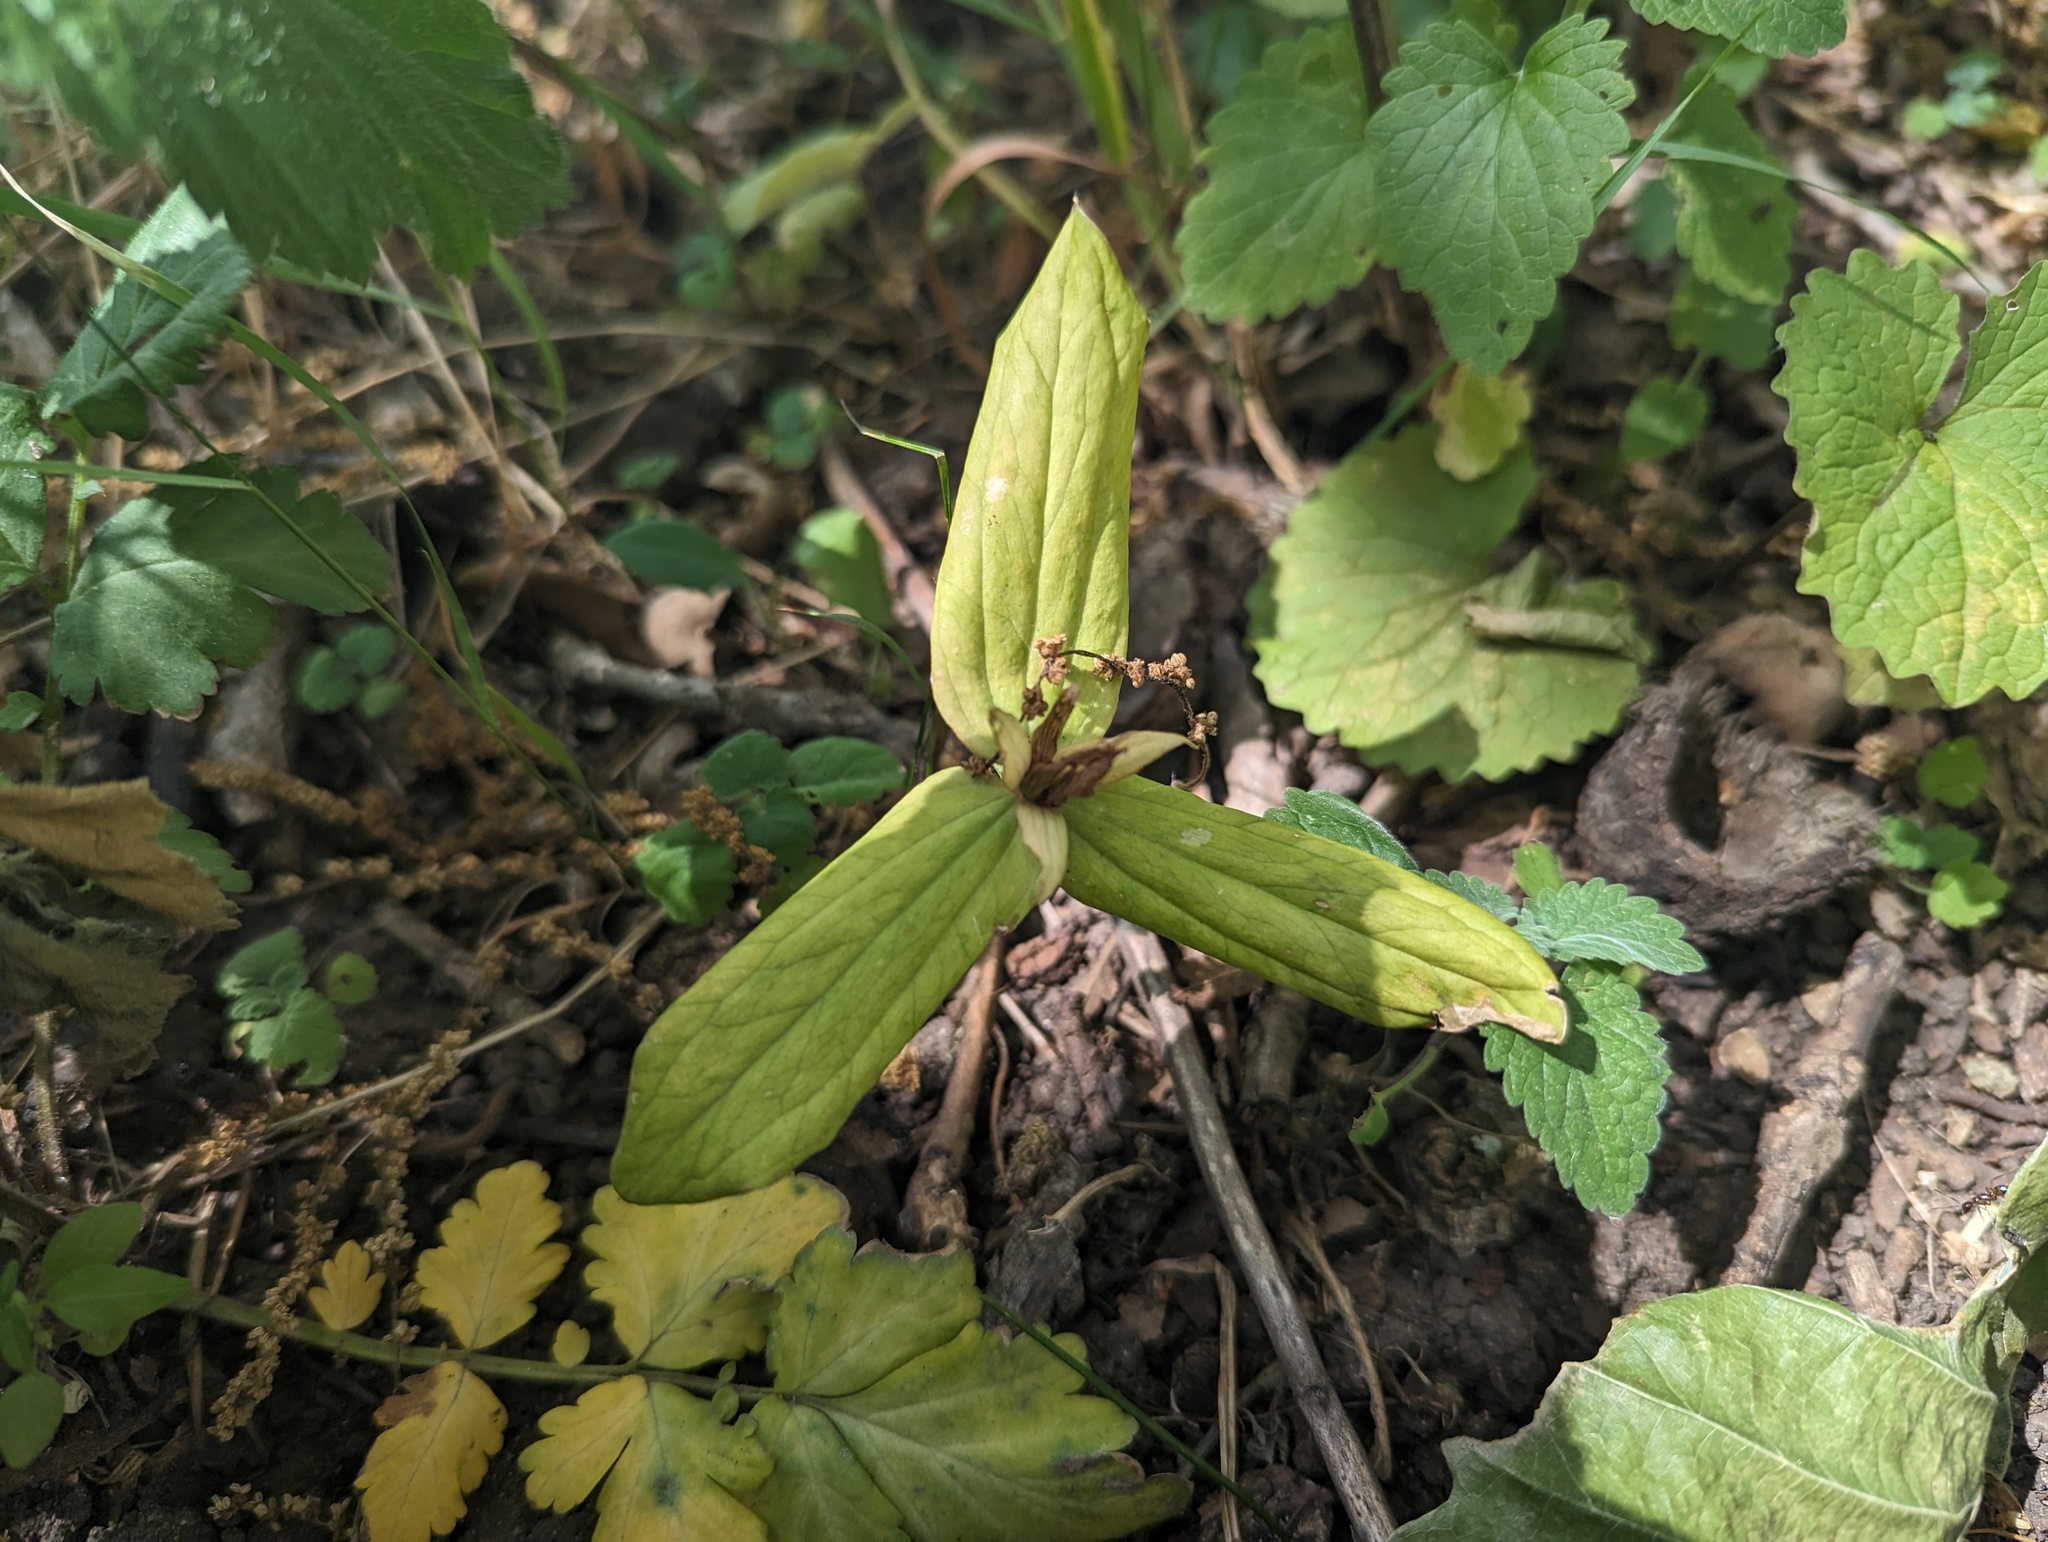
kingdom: Plantae
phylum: Tracheophyta
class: Liliopsida
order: Liliales
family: Melanthiaceae
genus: Trillium
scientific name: Trillium sessile
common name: Sessile trillium
